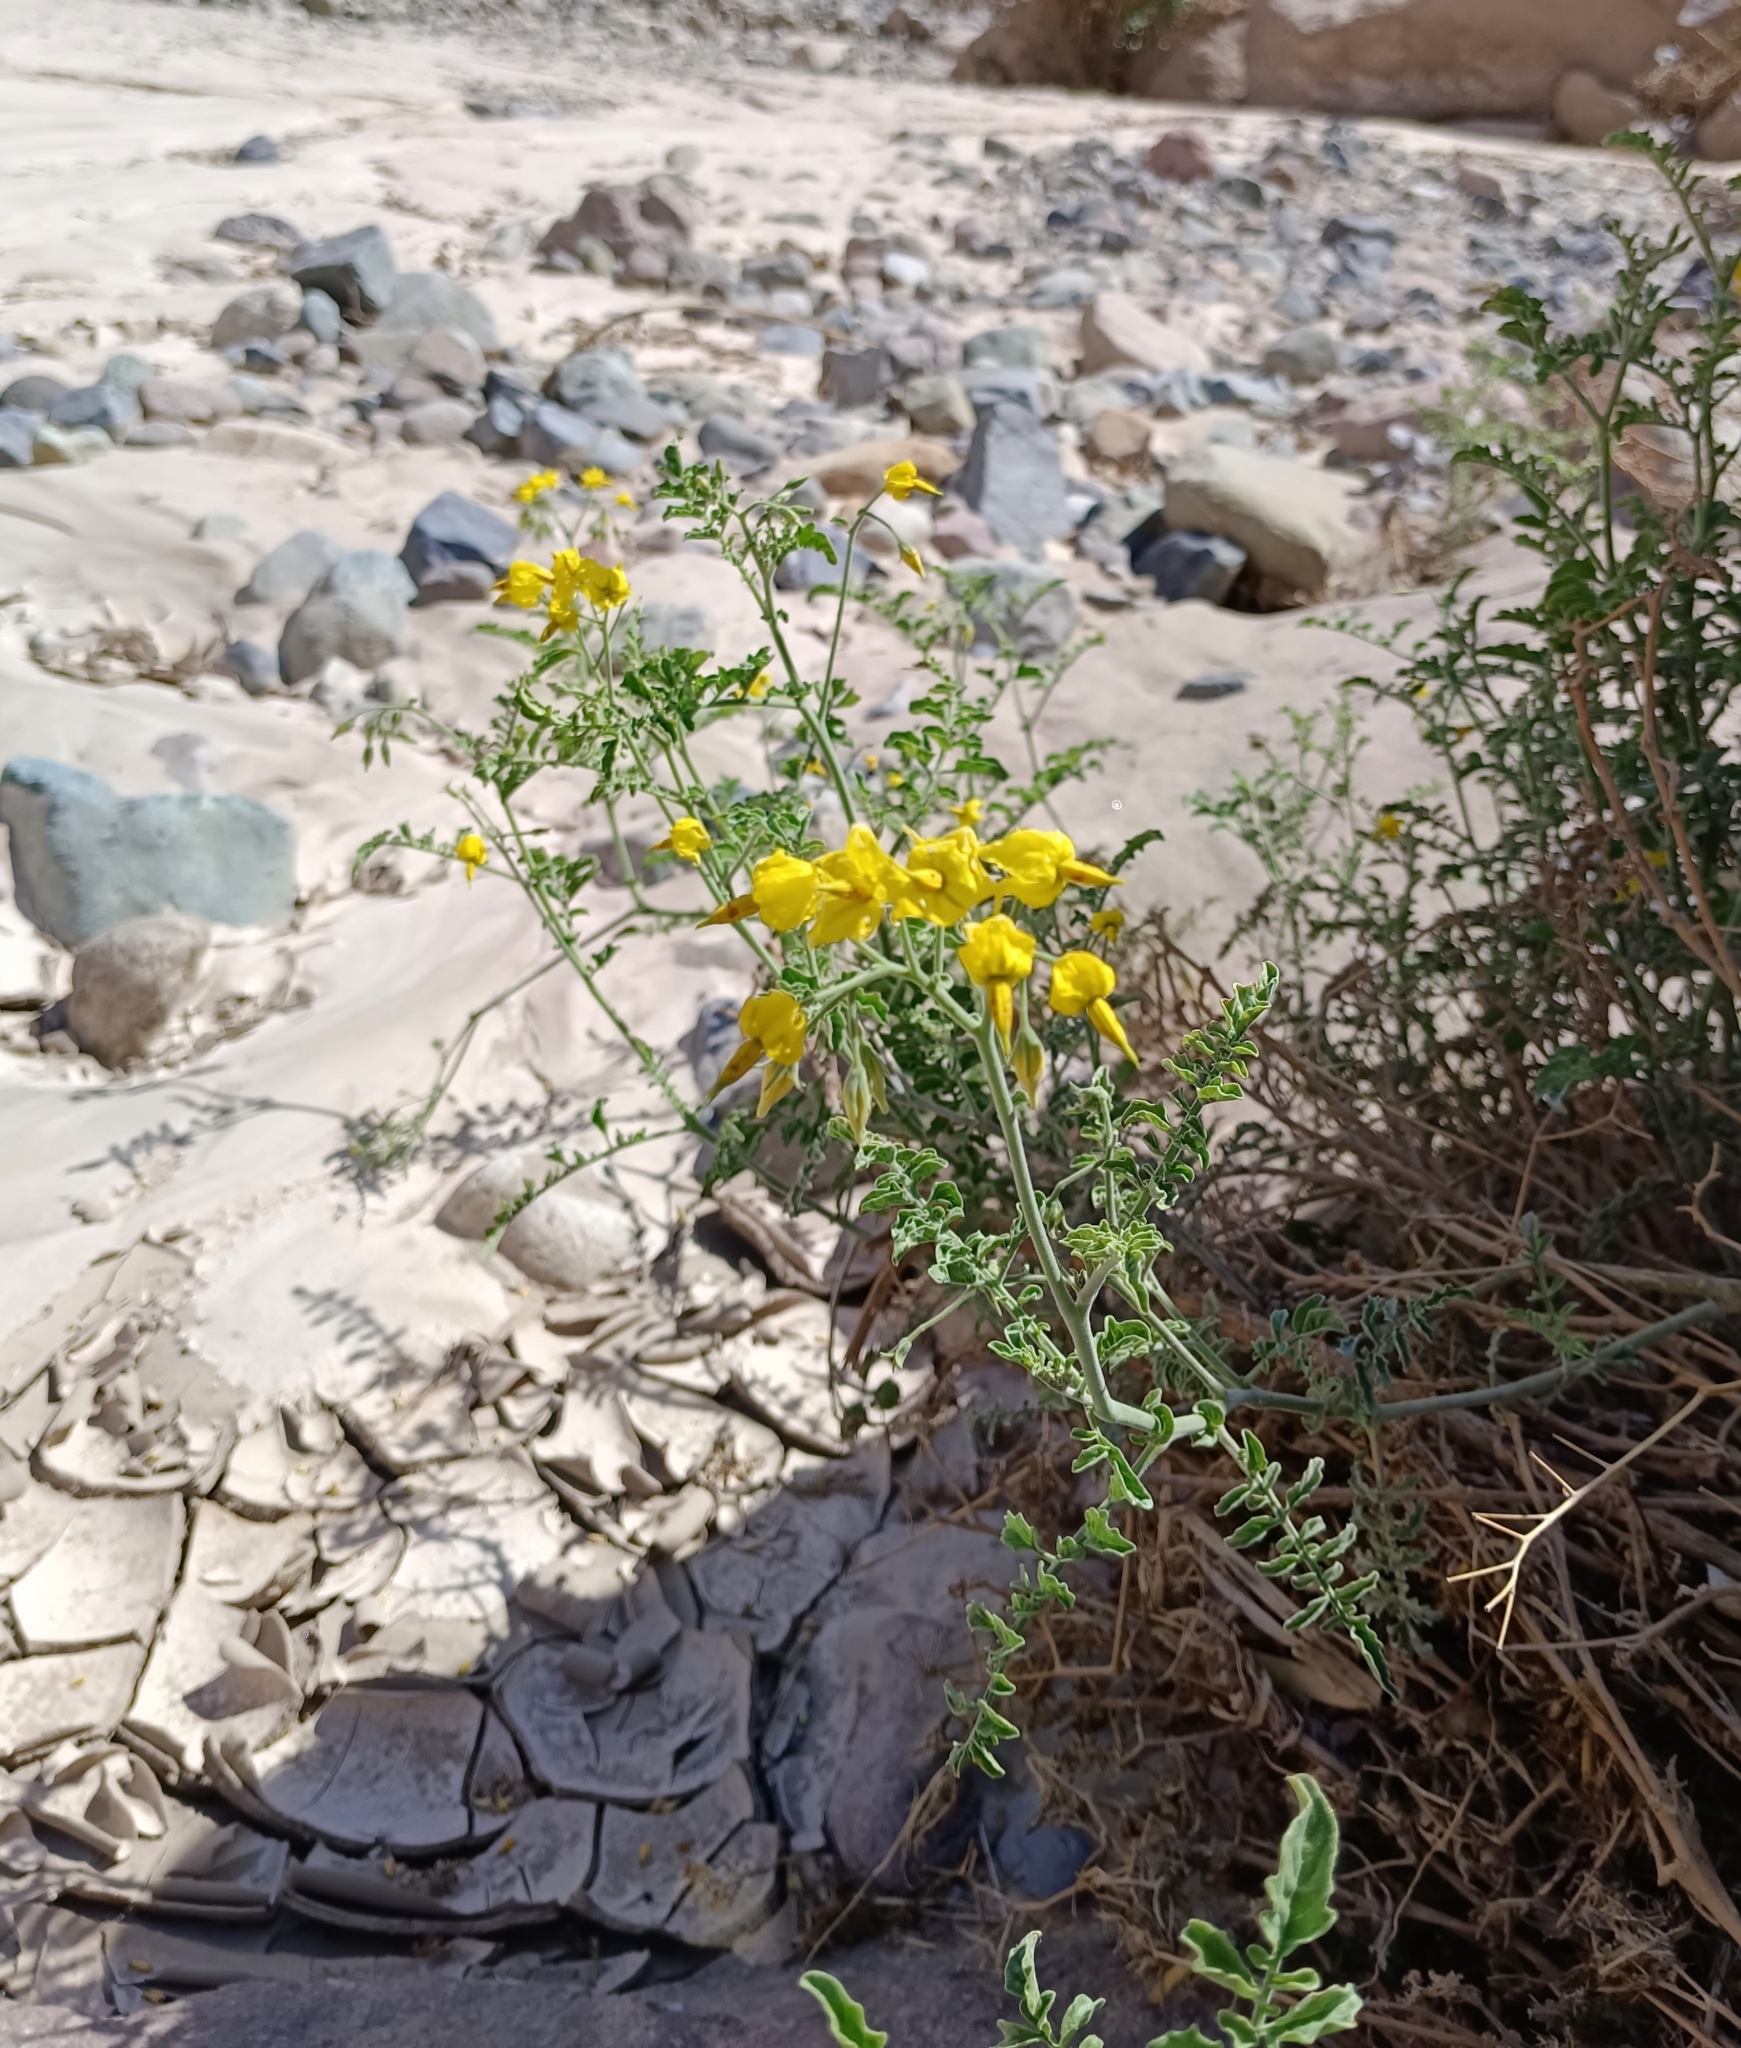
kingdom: Plantae
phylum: Tracheophyta
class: Magnoliopsida
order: Solanales
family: Solanaceae
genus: Solanum
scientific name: Solanum chilense
